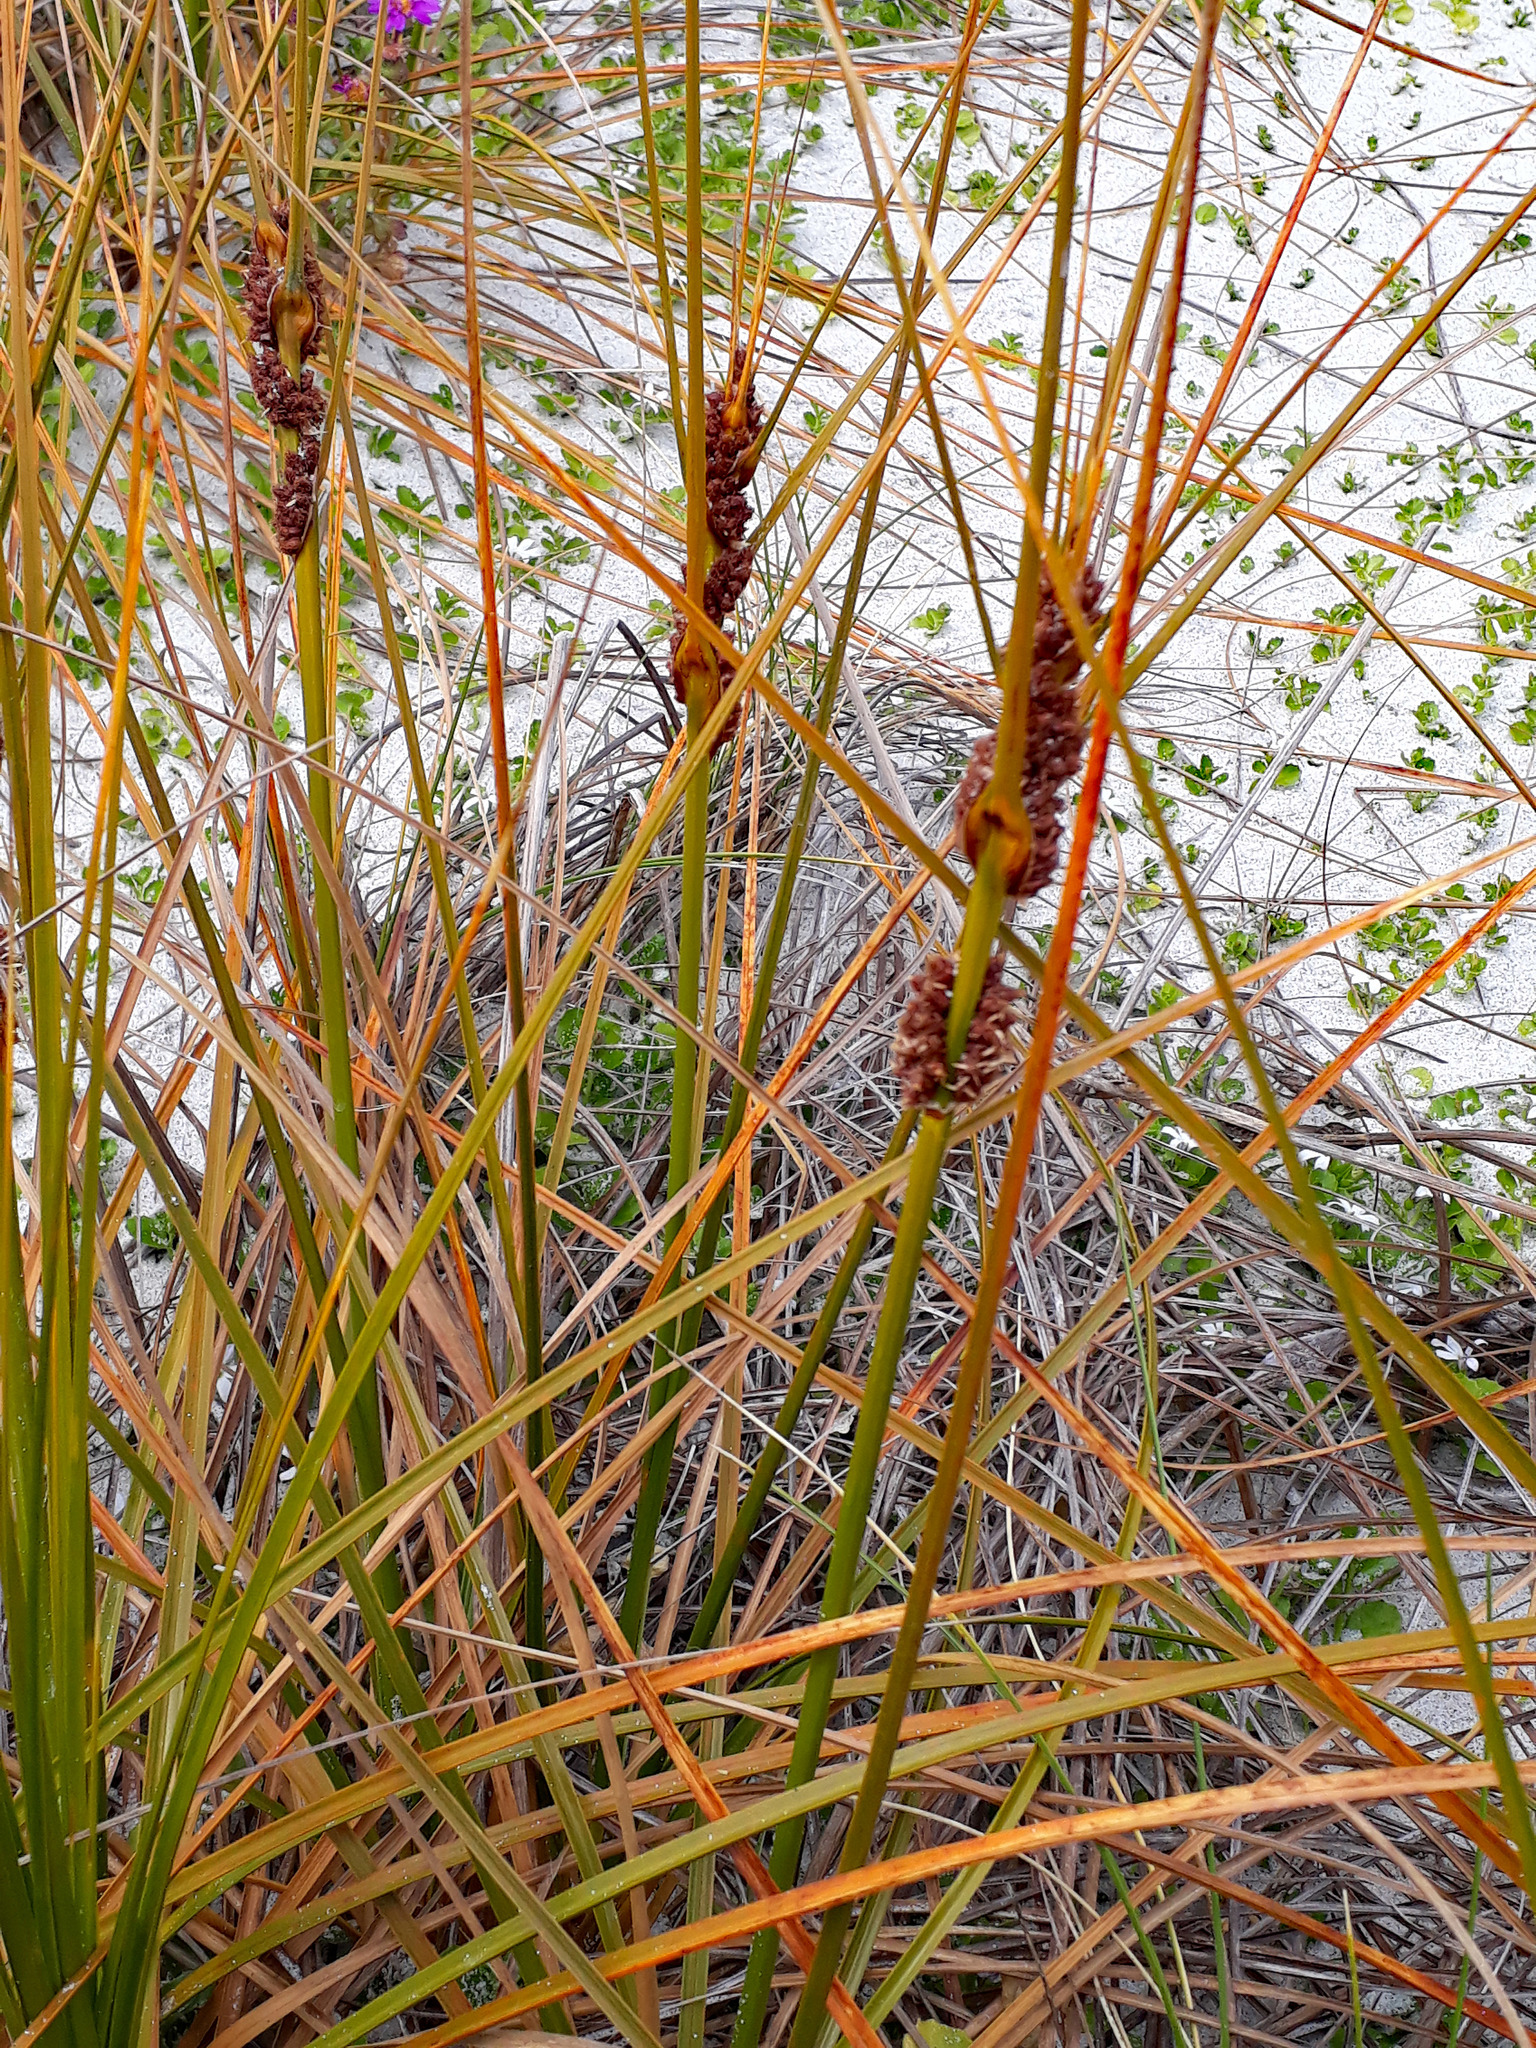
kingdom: Plantae
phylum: Tracheophyta
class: Liliopsida
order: Poales
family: Cyperaceae
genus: Ficinia
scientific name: Ficinia spiralis
